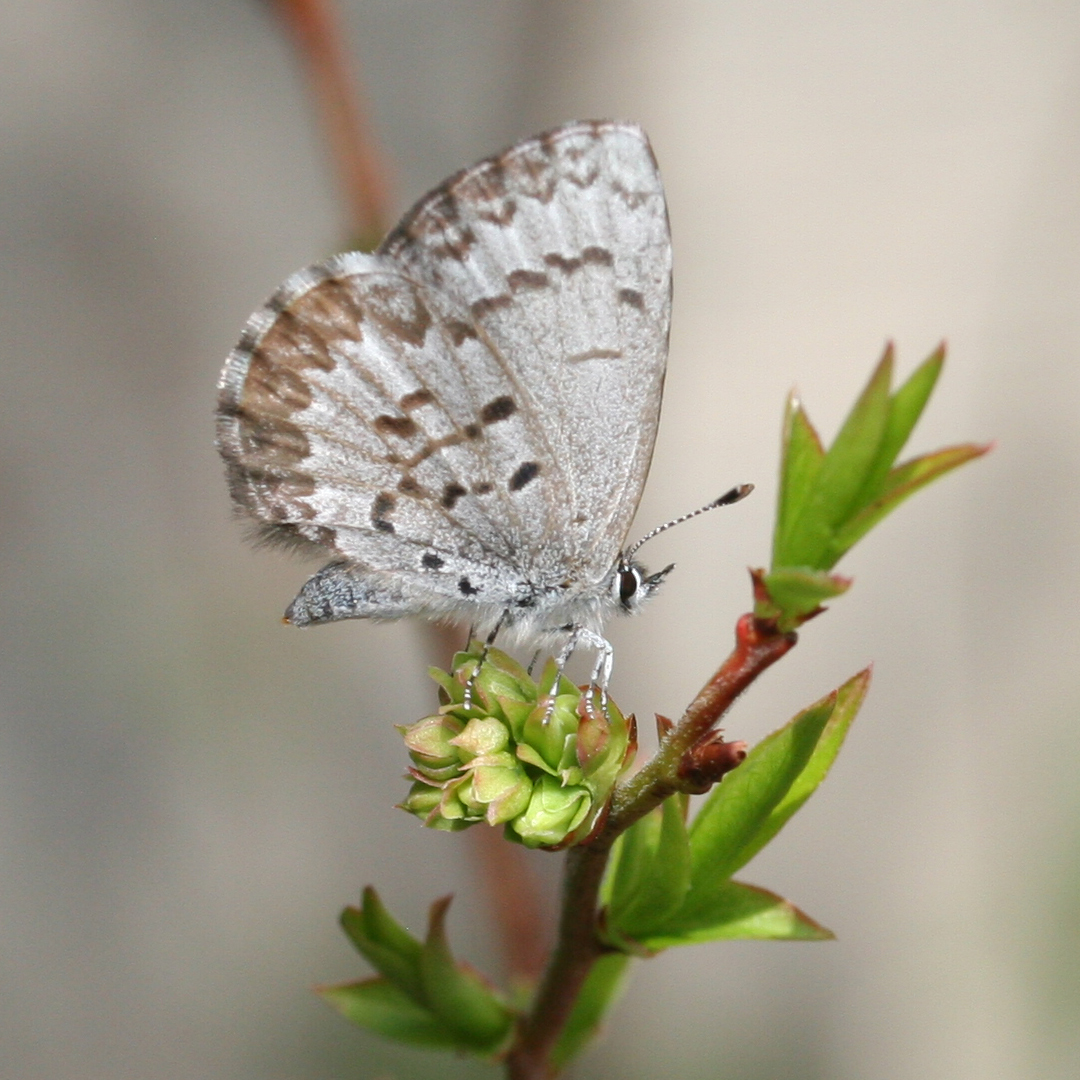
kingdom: Animalia
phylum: Arthropoda
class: Insecta
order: Lepidoptera
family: Lycaenidae
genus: Celastrina
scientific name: Celastrina lucia
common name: Lucia azure
